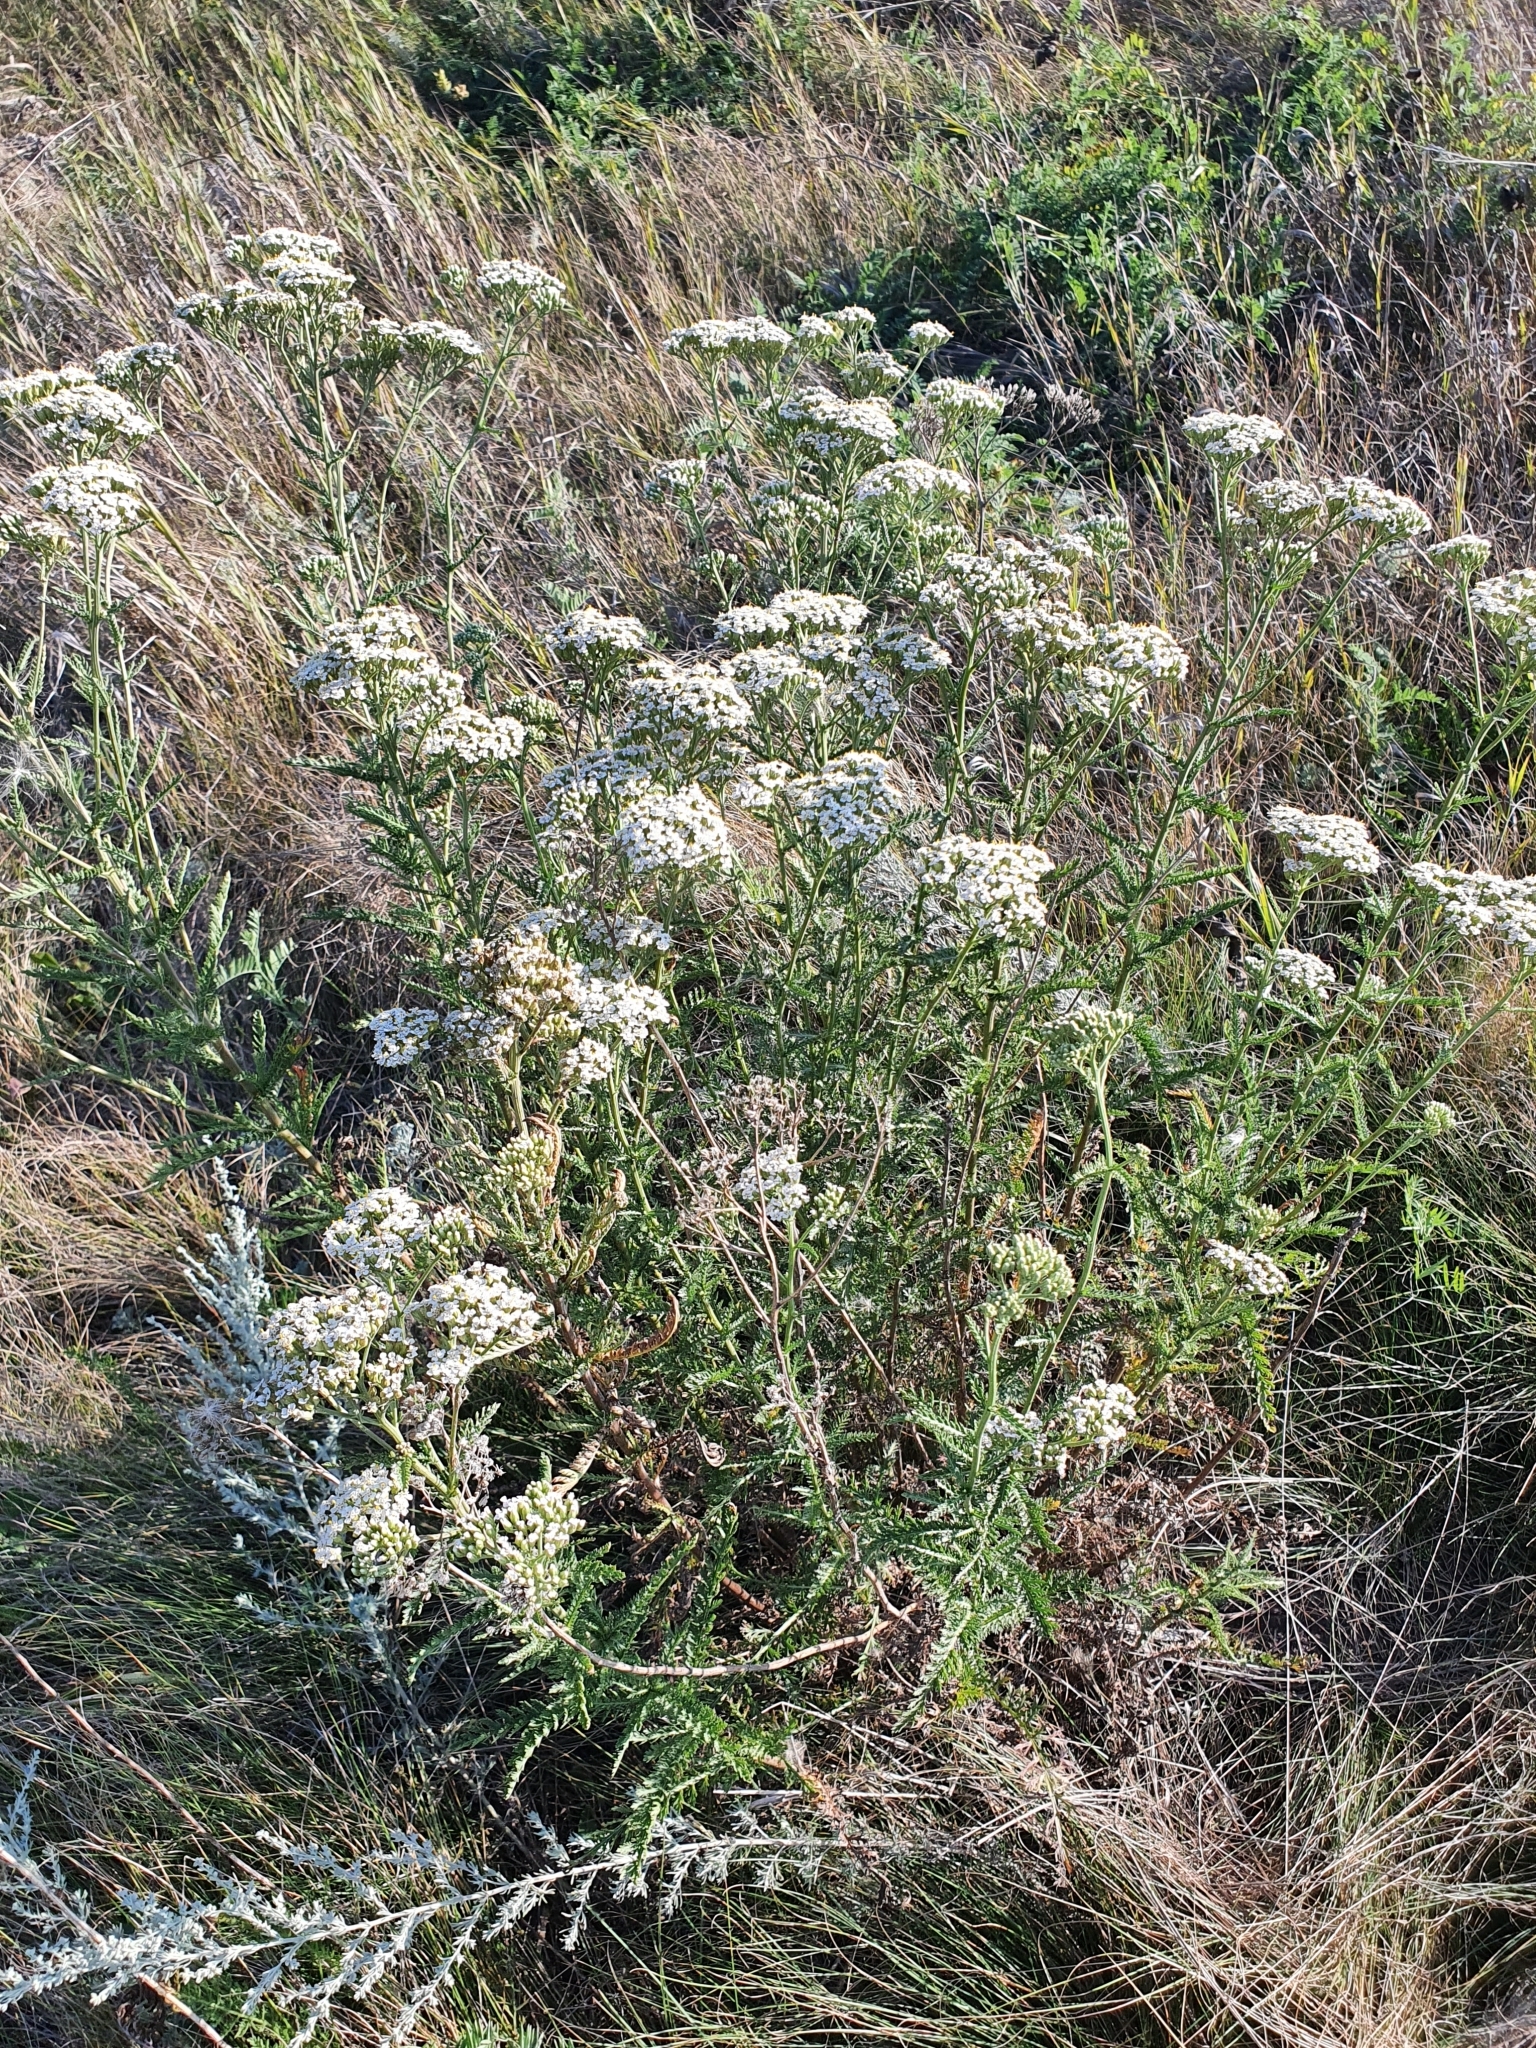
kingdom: Plantae
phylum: Tracheophyta
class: Magnoliopsida
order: Asterales
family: Asteraceae
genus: Achillea
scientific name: Achillea millefolium
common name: Yarrow
